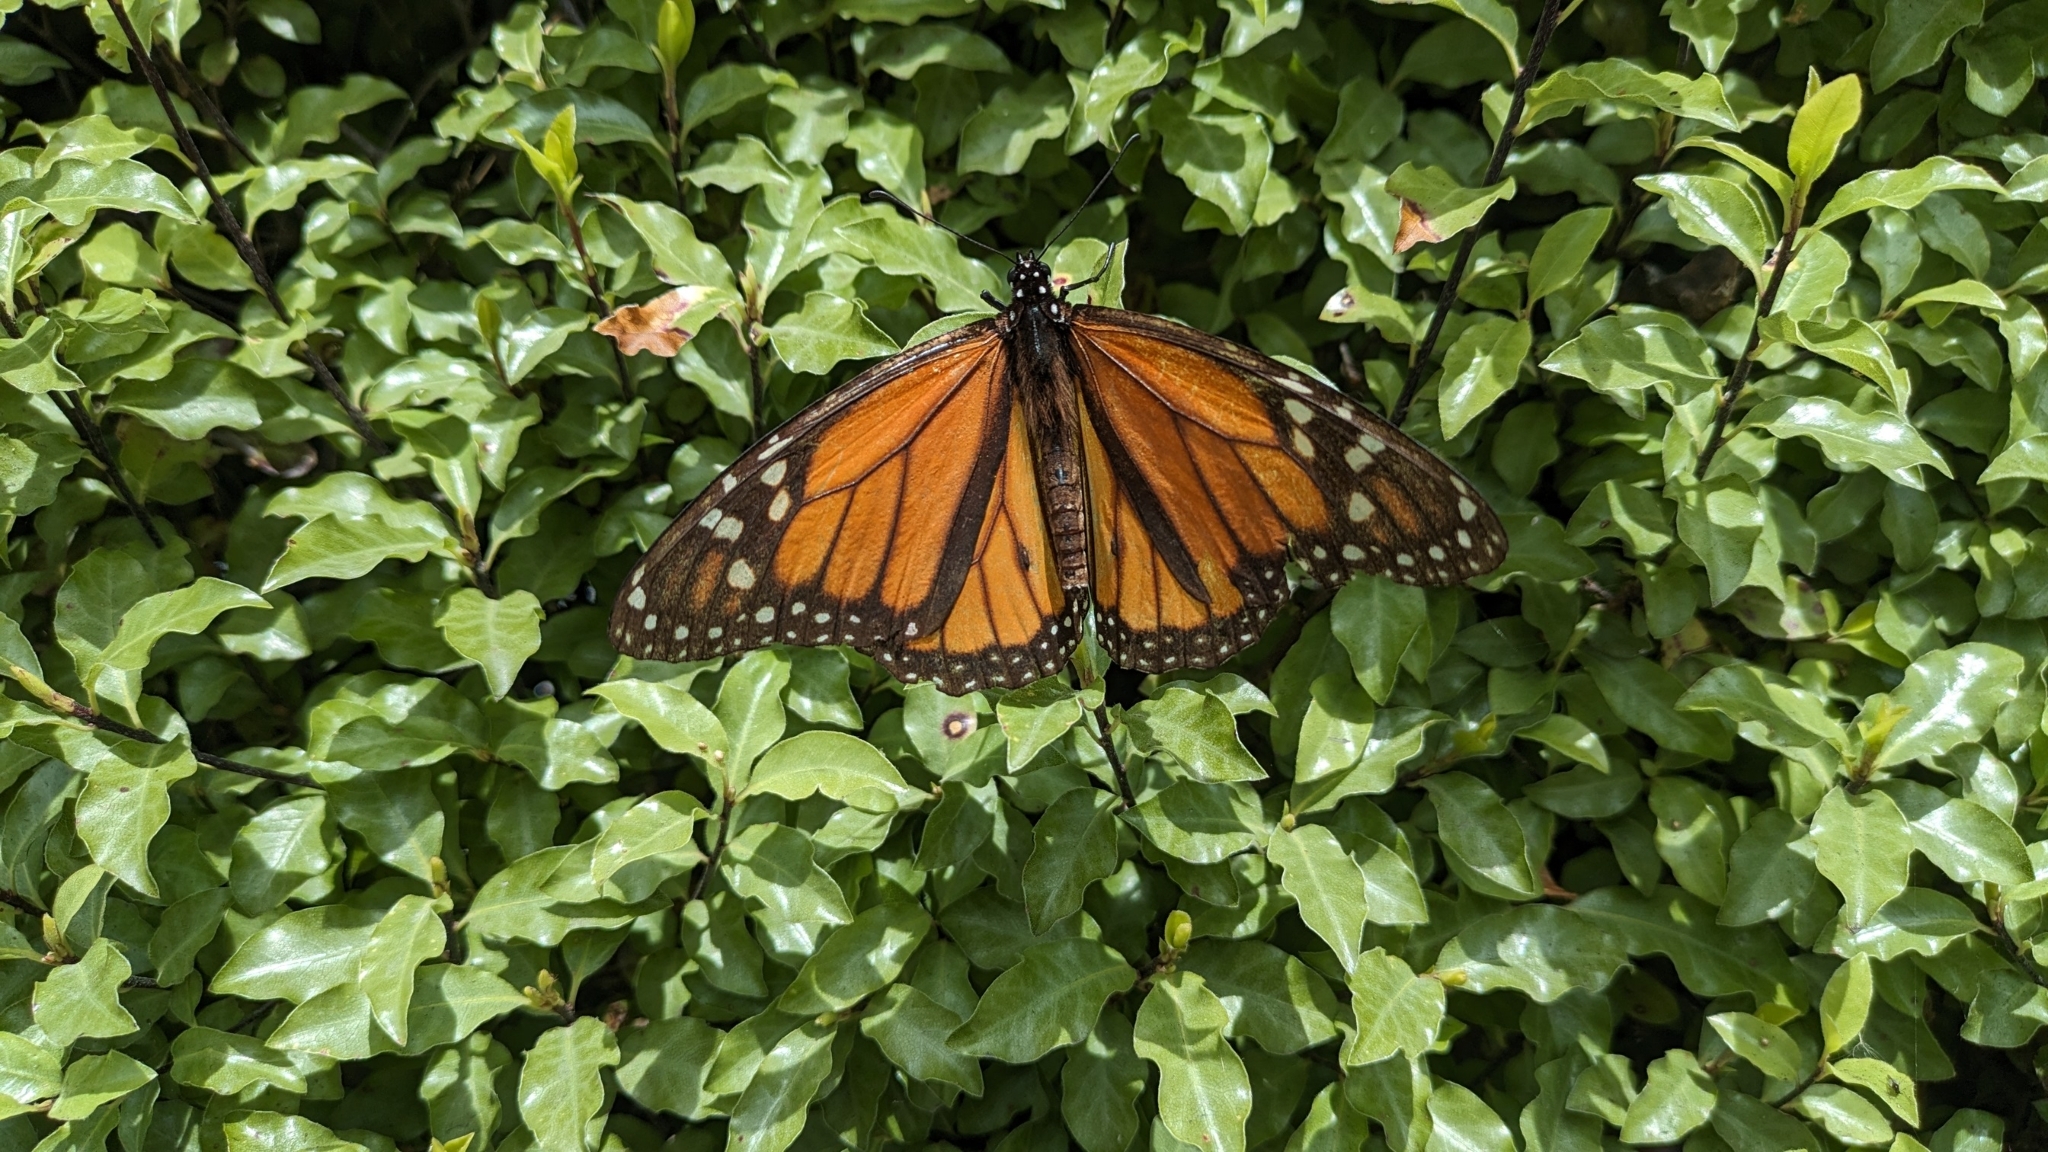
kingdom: Animalia
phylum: Arthropoda
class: Insecta
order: Lepidoptera
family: Nymphalidae
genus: Danaus
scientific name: Danaus plexippus
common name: Monarch
